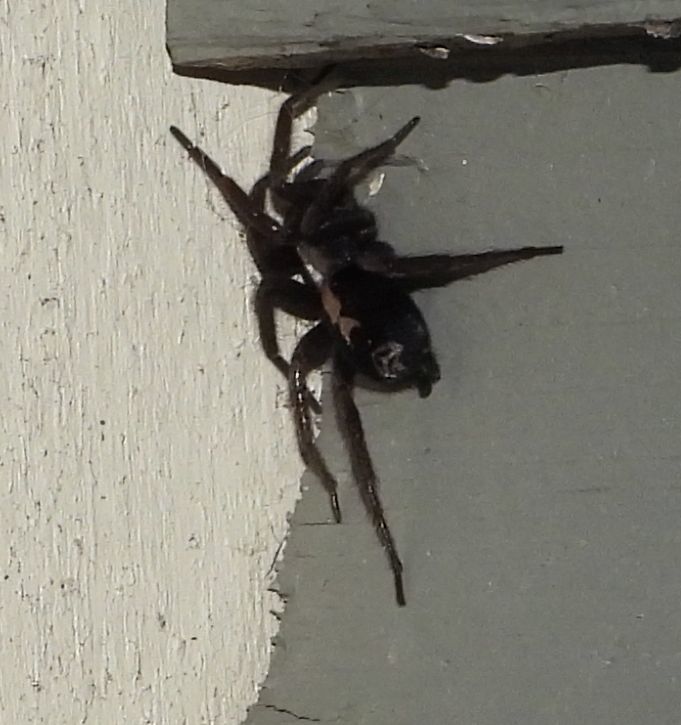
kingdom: Animalia
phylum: Arthropoda
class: Arachnida
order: Araneae
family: Gnaphosidae
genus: Herpyllus
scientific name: Herpyllus ecclesiasticus
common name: Eastern parson spider
